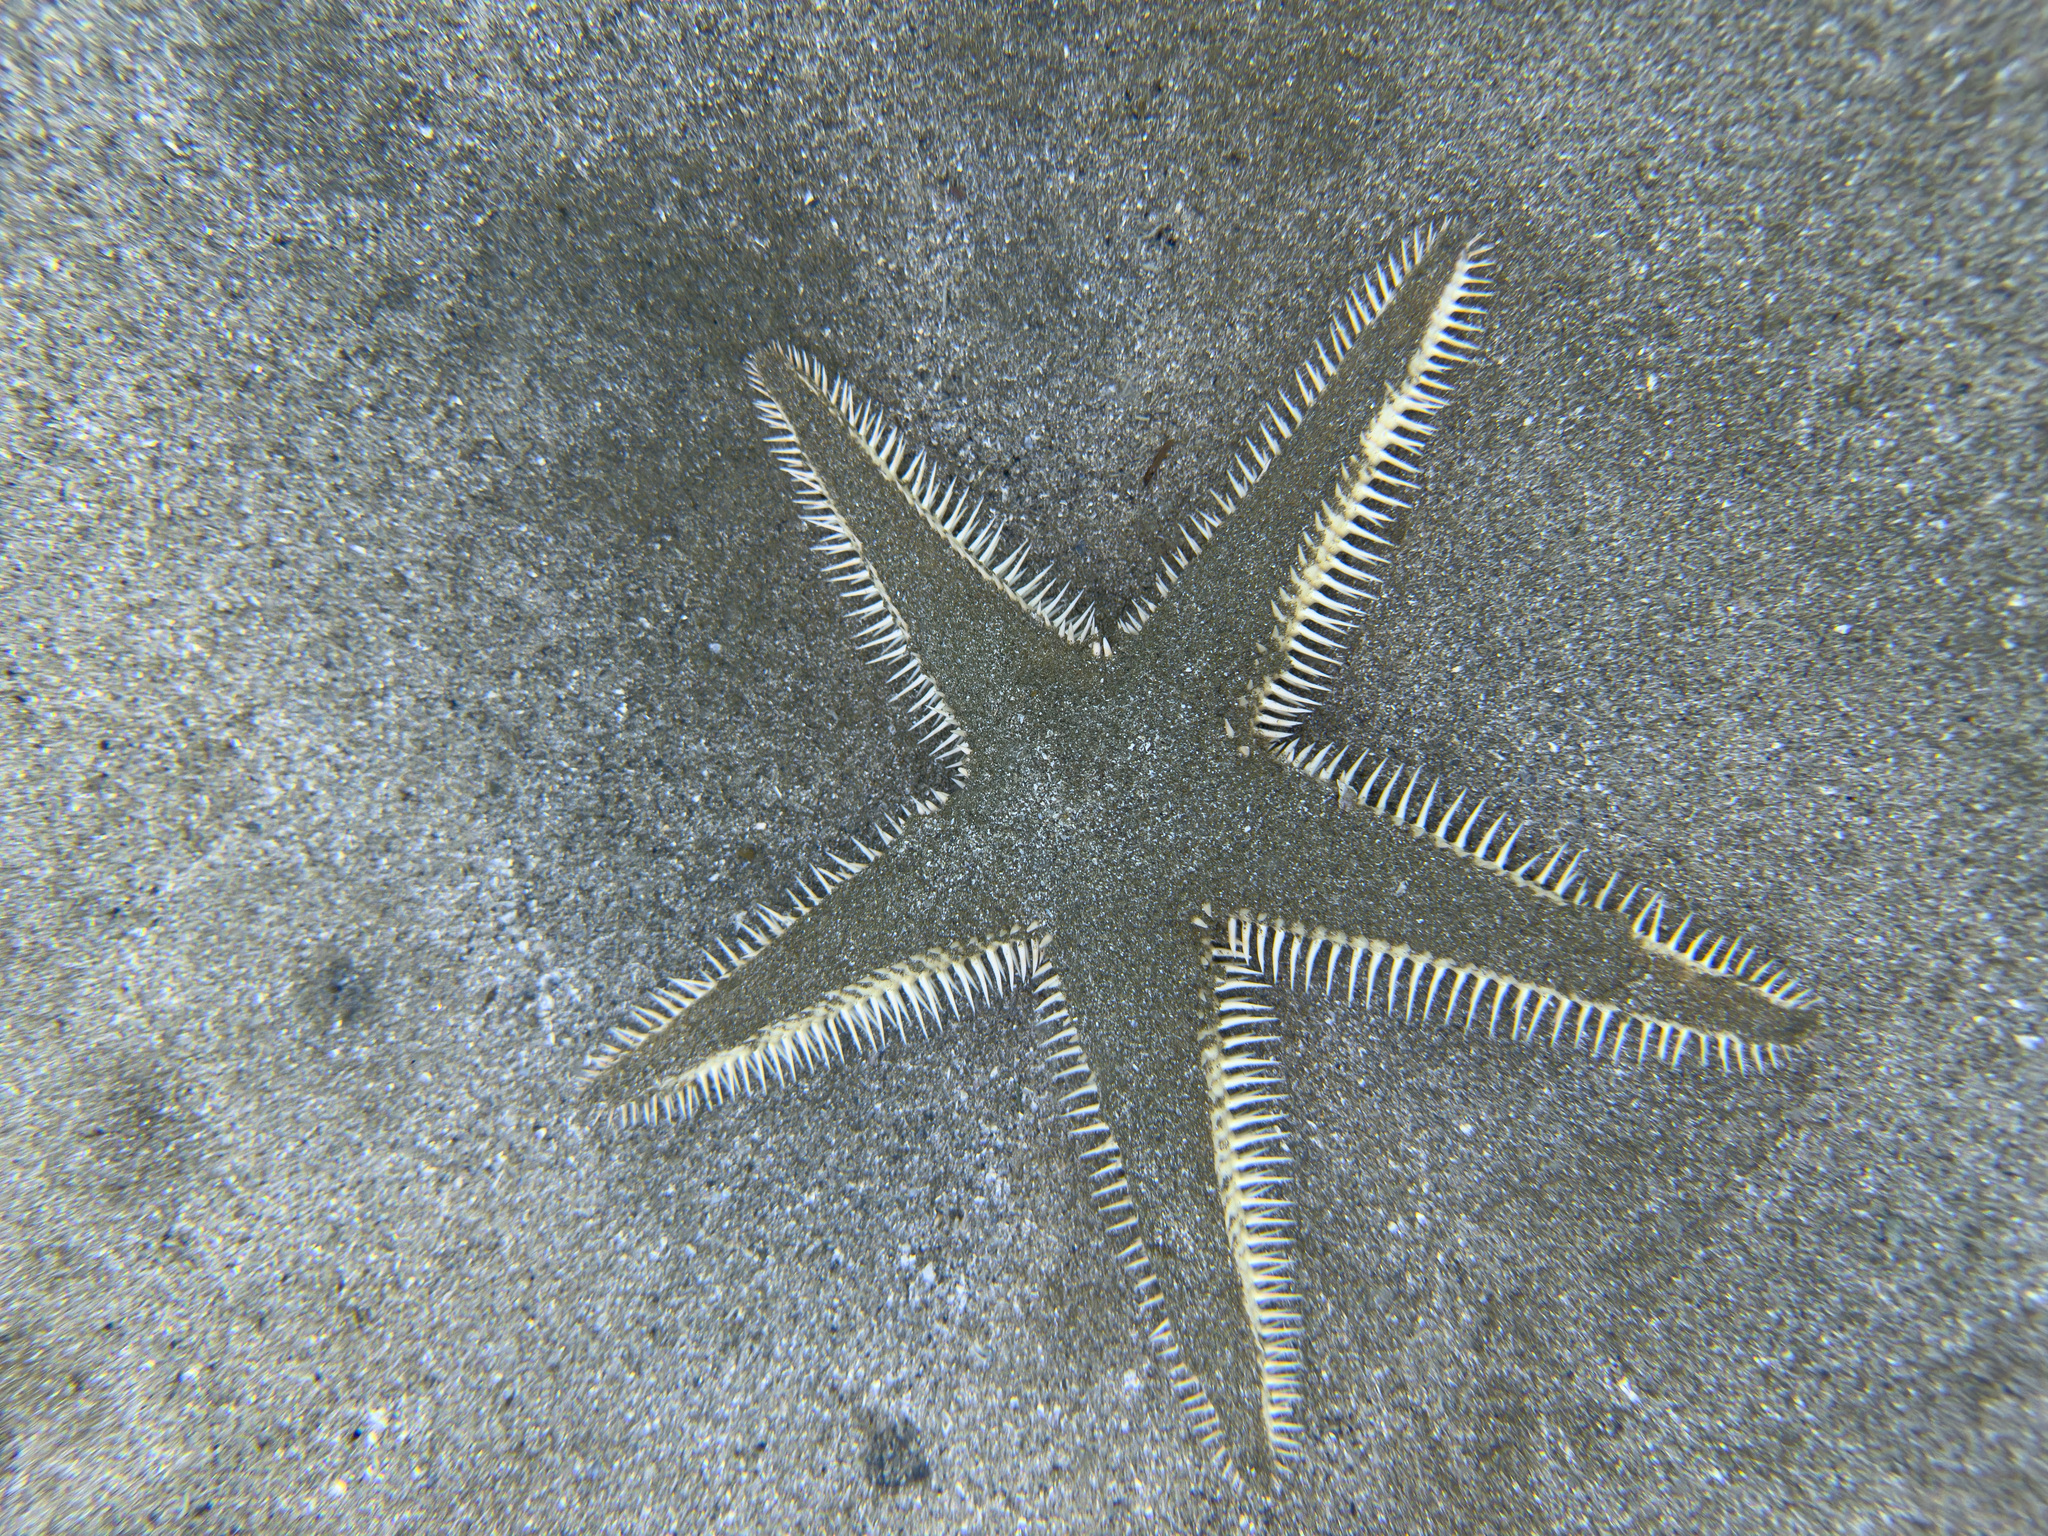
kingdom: Animalia
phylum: Echinodermata
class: Asteroidea
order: Paxillosida
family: Astropectinidae
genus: Astropecten
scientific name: Astropecten polyacanthus
